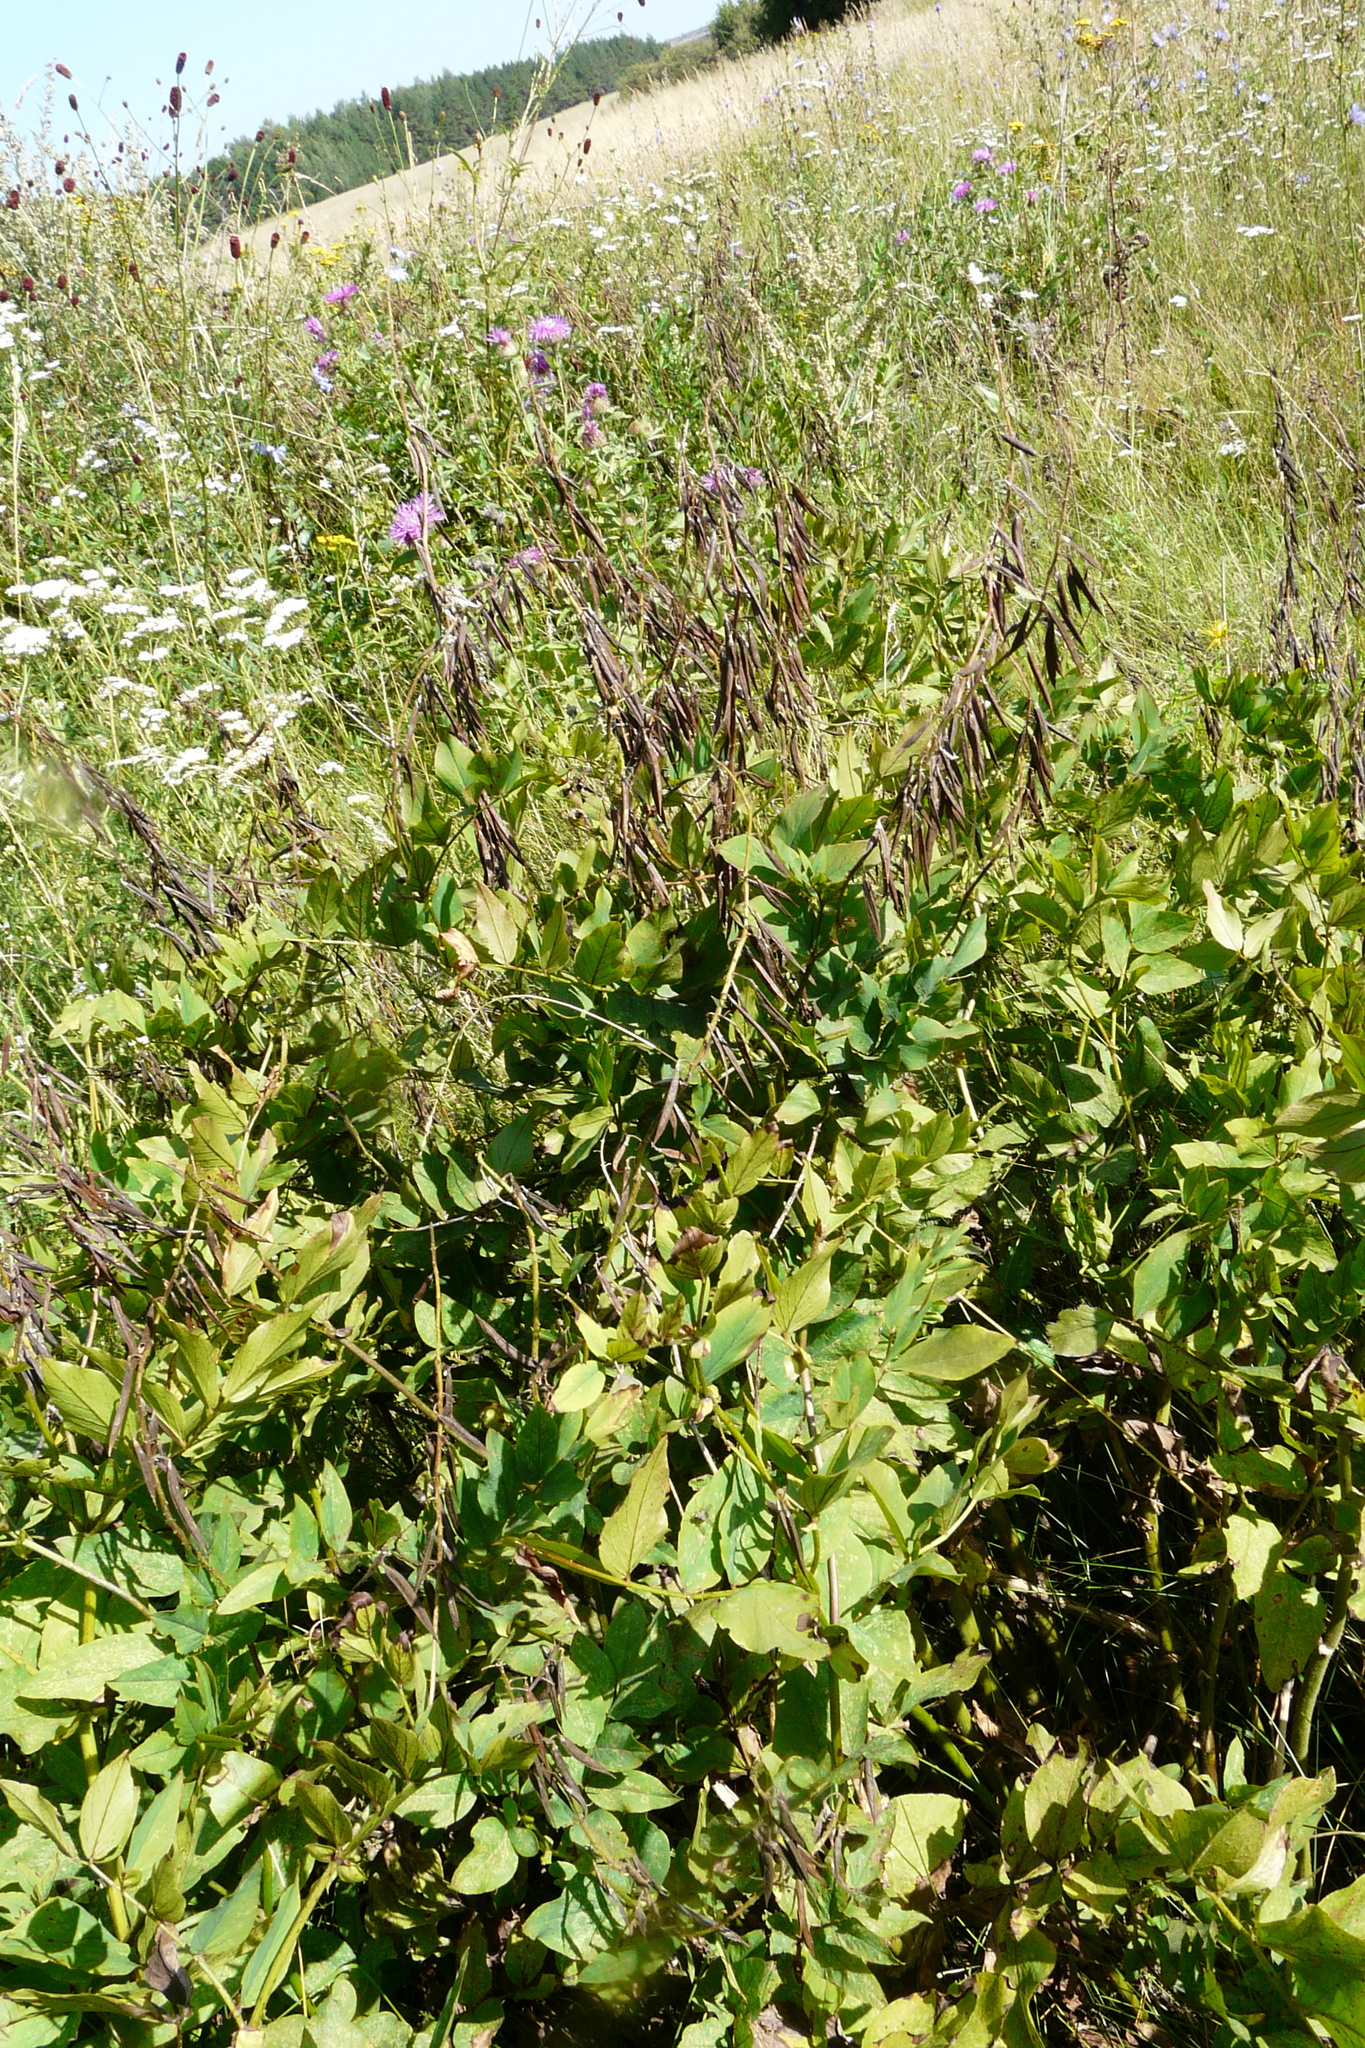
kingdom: Plantae
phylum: Tracheophyta
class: Magnoliopsida
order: Fabales
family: Fabaceae
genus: Galega
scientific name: Galega orientalis
